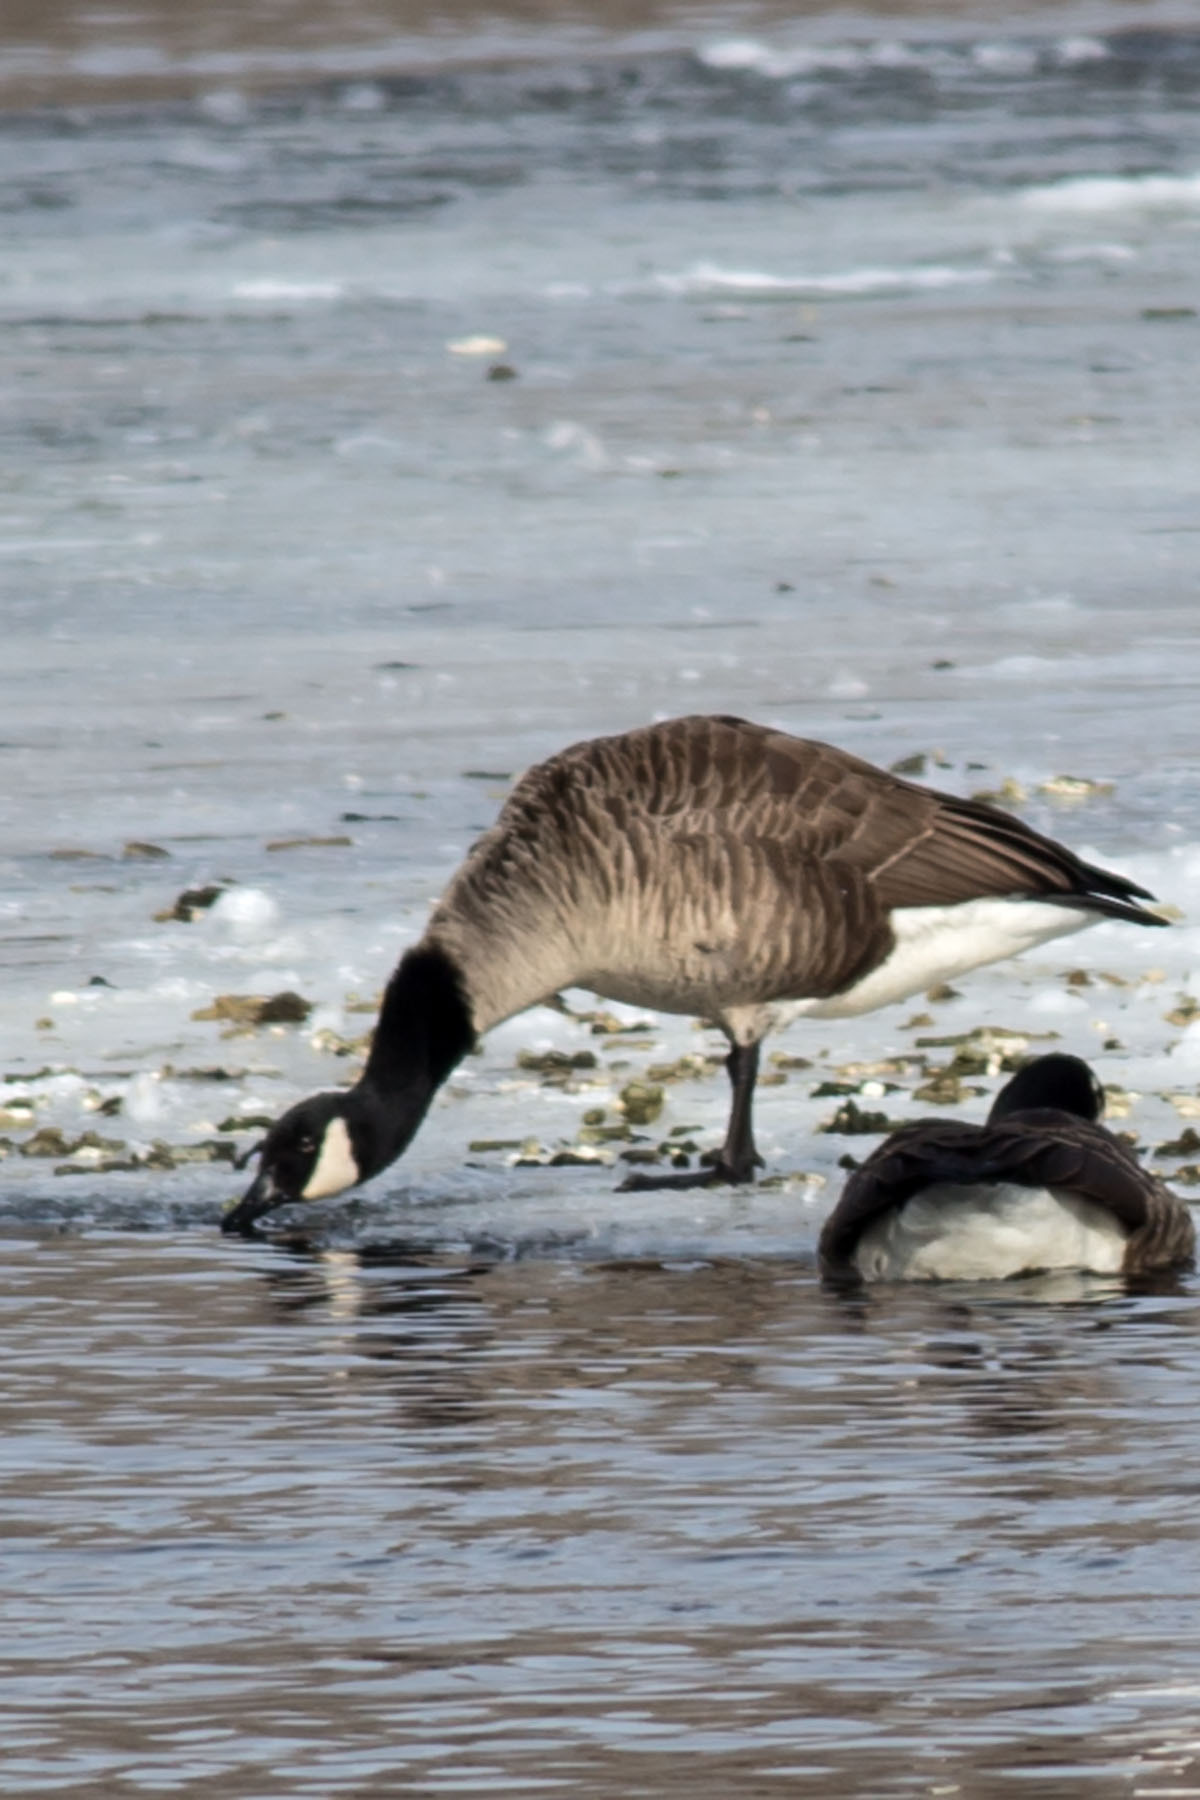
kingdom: Animalia
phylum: Chordata
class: Aves
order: Anseriformes
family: Anatidae
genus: Branta
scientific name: Branta canadensis
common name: Canada goose
